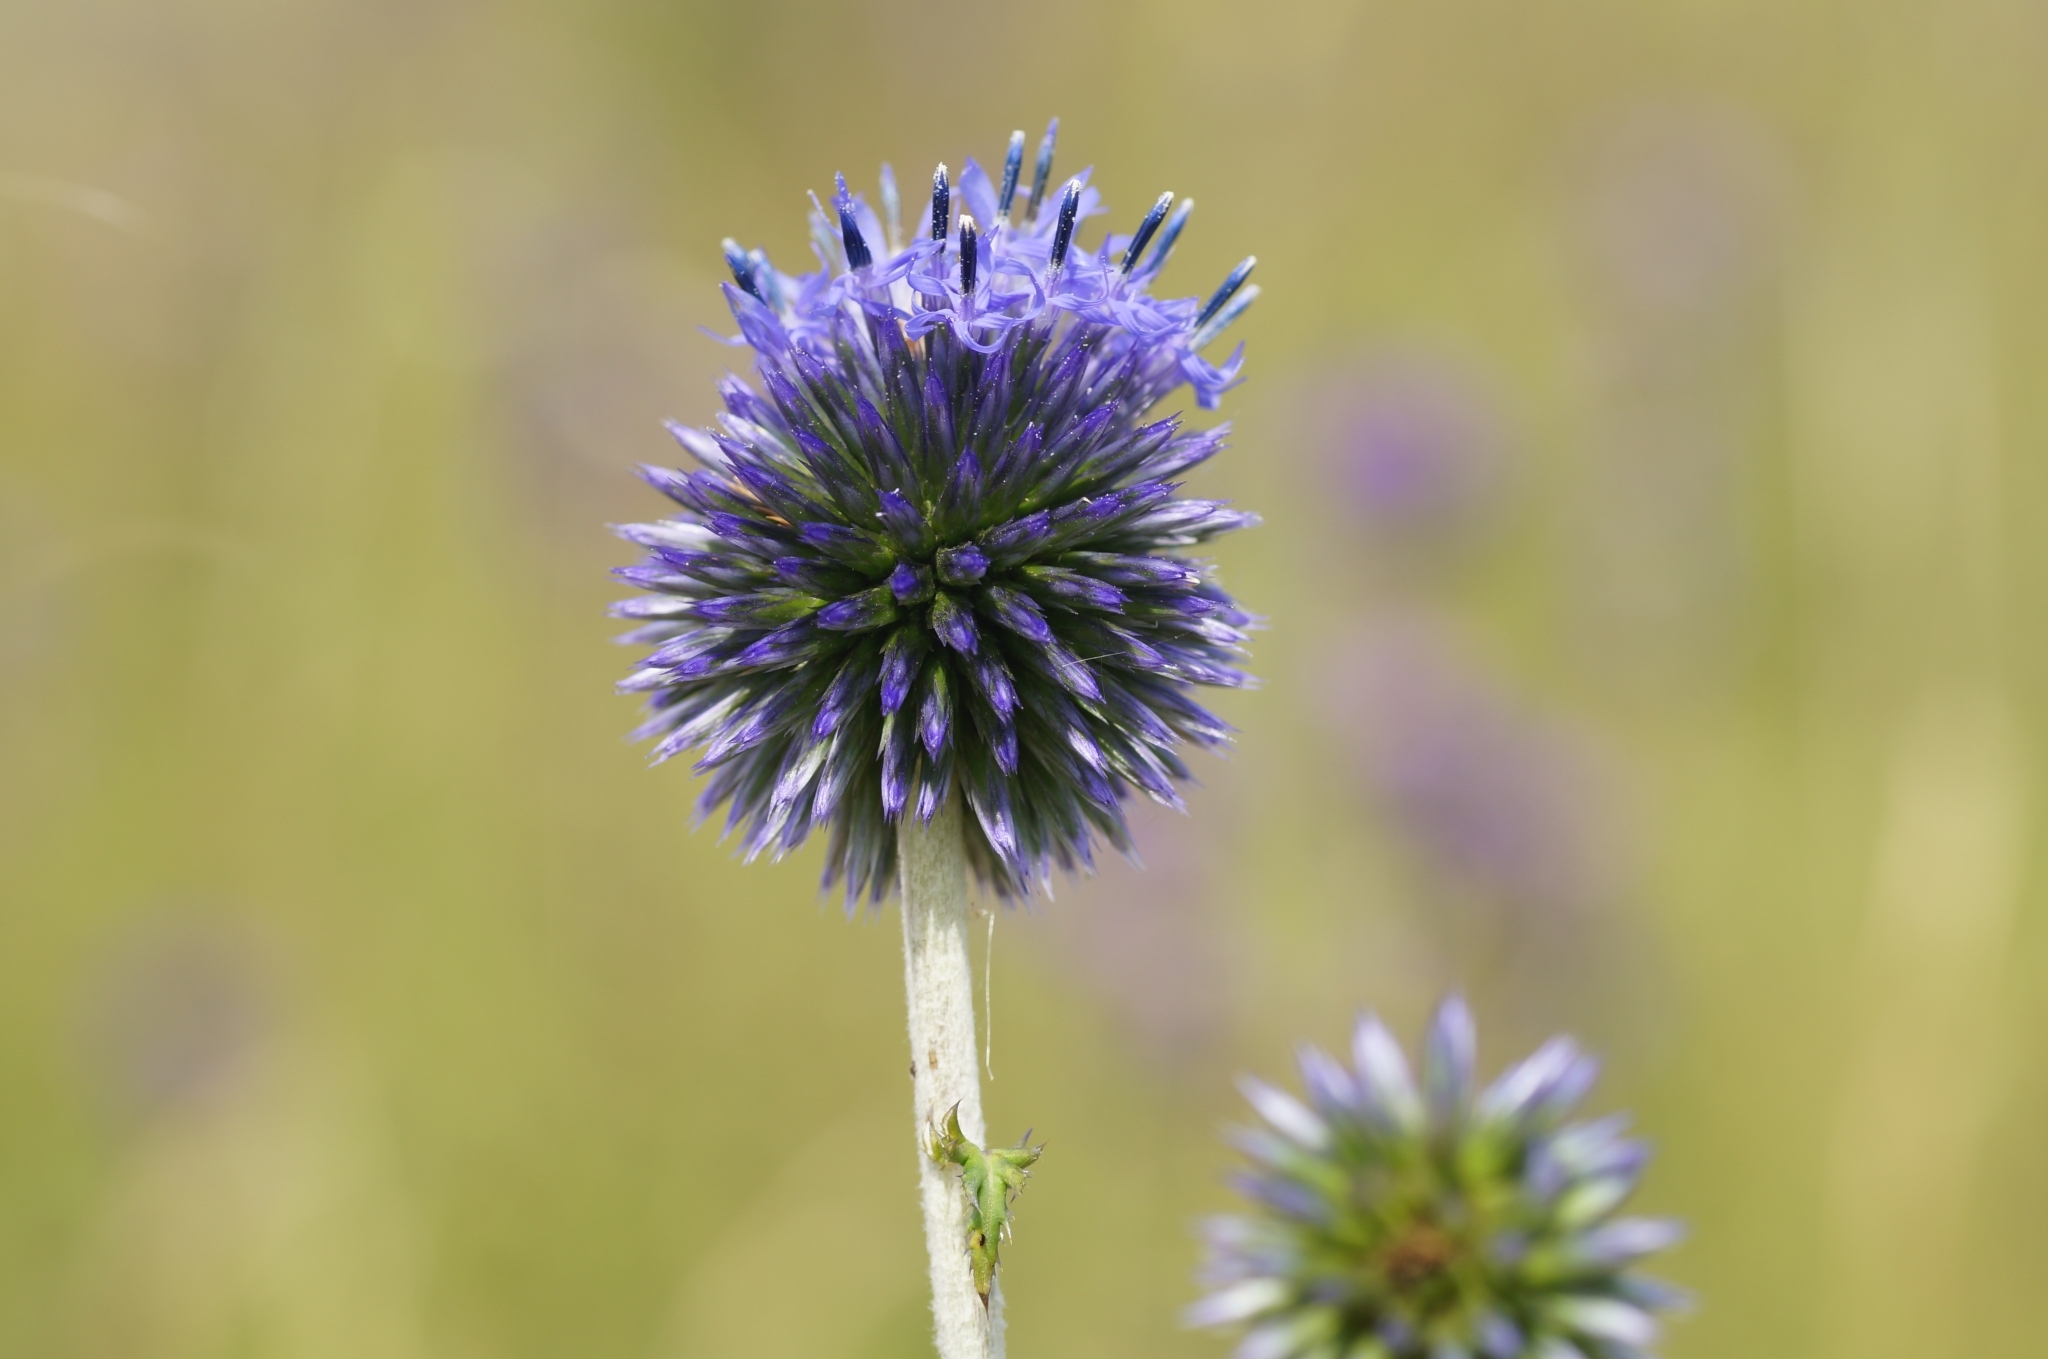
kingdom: Plantae
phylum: Tracheophyta
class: Magnoliopsida
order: Asterales
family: Asteraceae
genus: Echinops
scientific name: Echinops ritro
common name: Globe thistle
